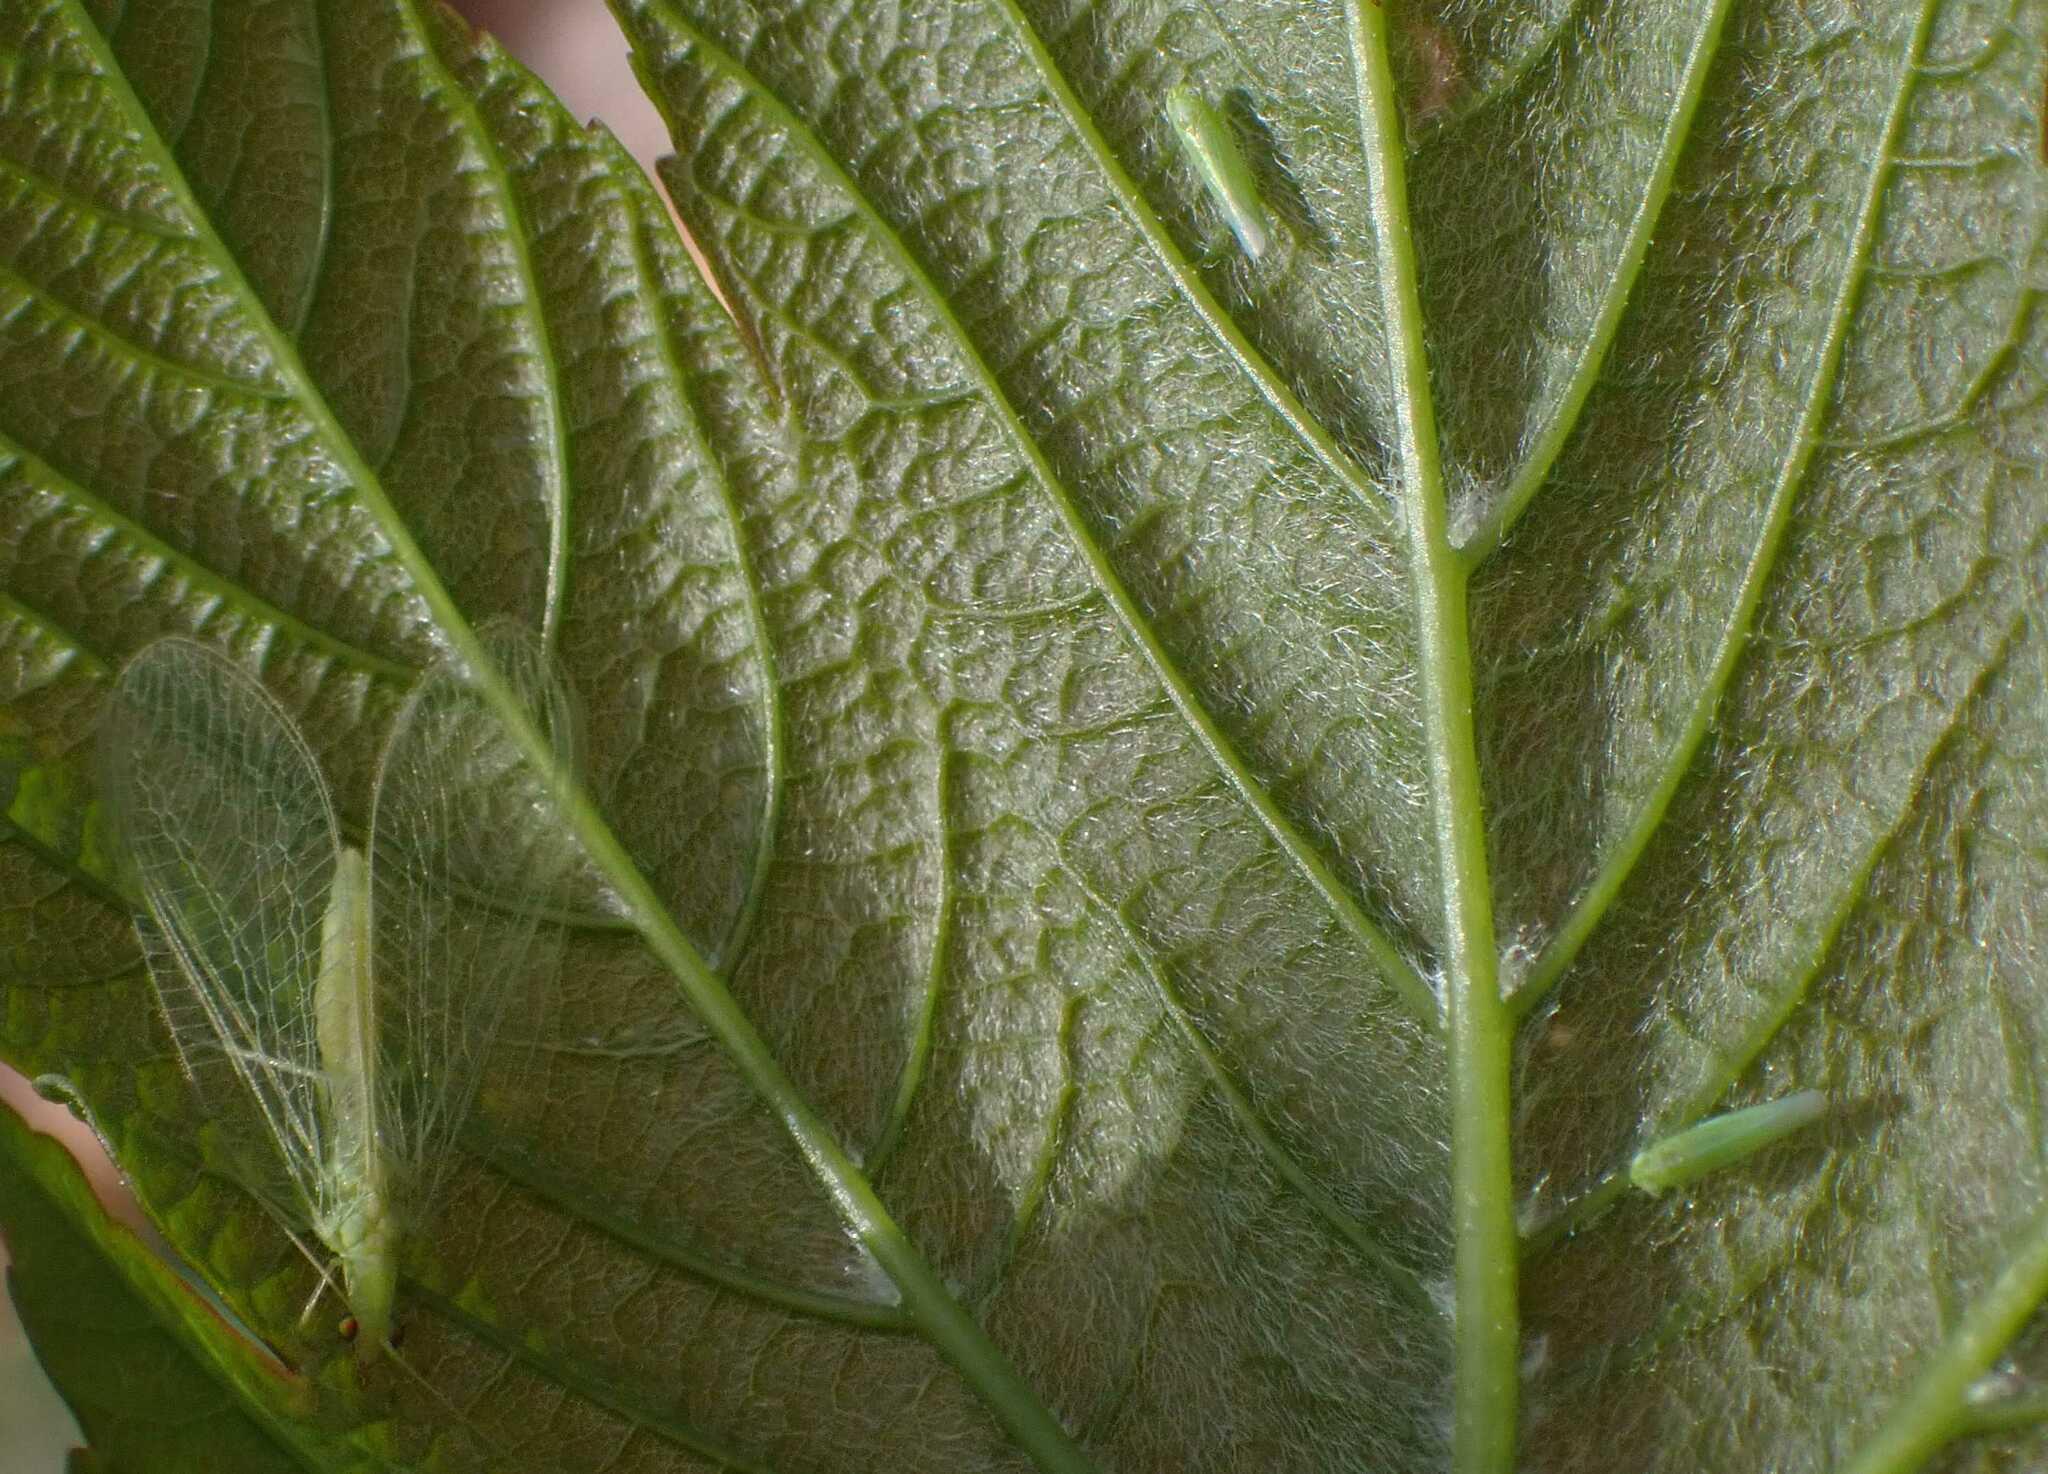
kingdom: Animalia
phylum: Arthropoda
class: Insecta
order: Hemiptera
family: Cicadellidae
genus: Hebata
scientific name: Hebata vitis
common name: The smaller green leafhopper
